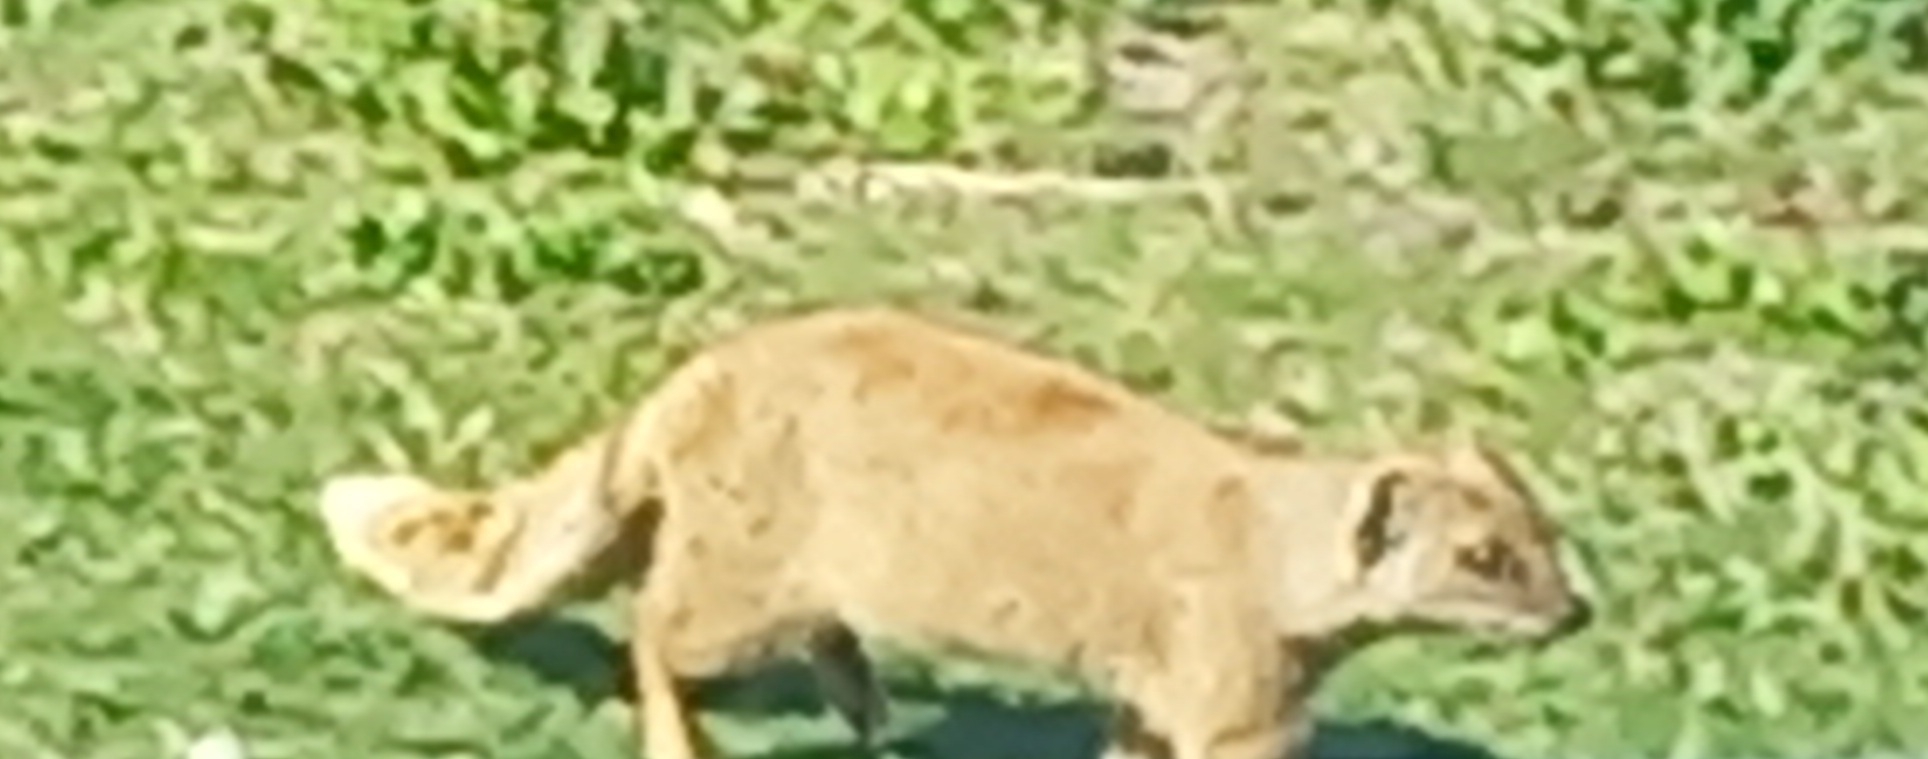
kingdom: Animalia
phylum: Chordata
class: Mammalia
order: Carnivora
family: Herpestidae
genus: Cynictis
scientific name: Cynictis penicillata
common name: Yellow mongoose
